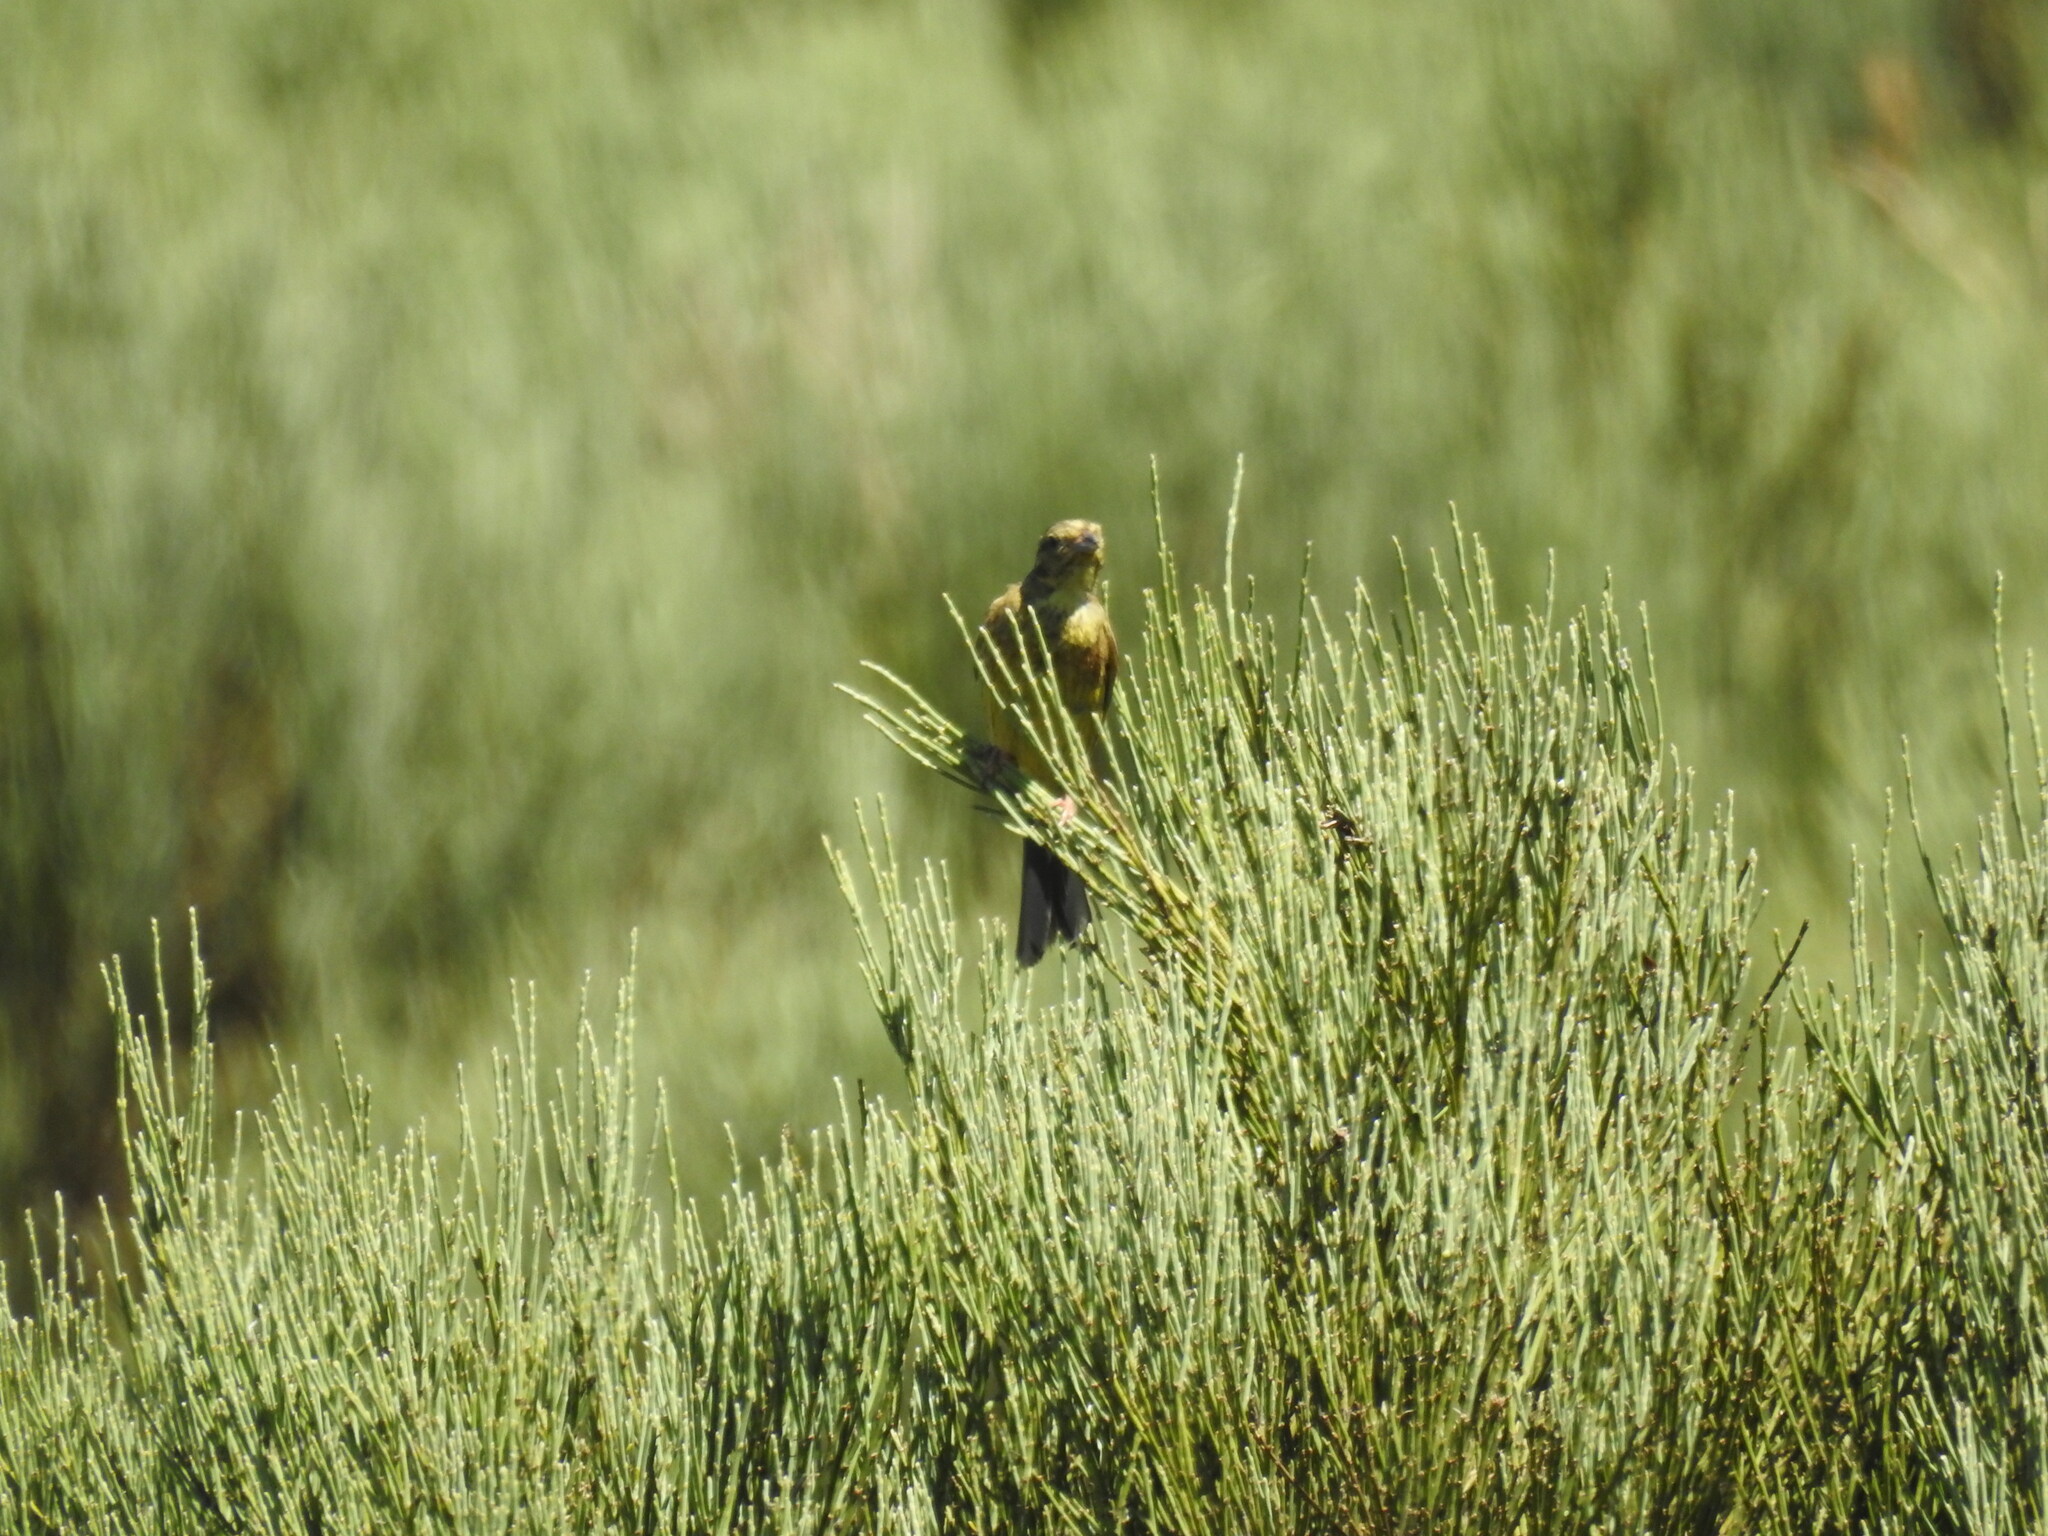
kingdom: Animalia
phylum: Chordata
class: Aves
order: Passeriformes
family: Emberizidae
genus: Emberiza
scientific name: Emberiza citrinella
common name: Yellowhammer
